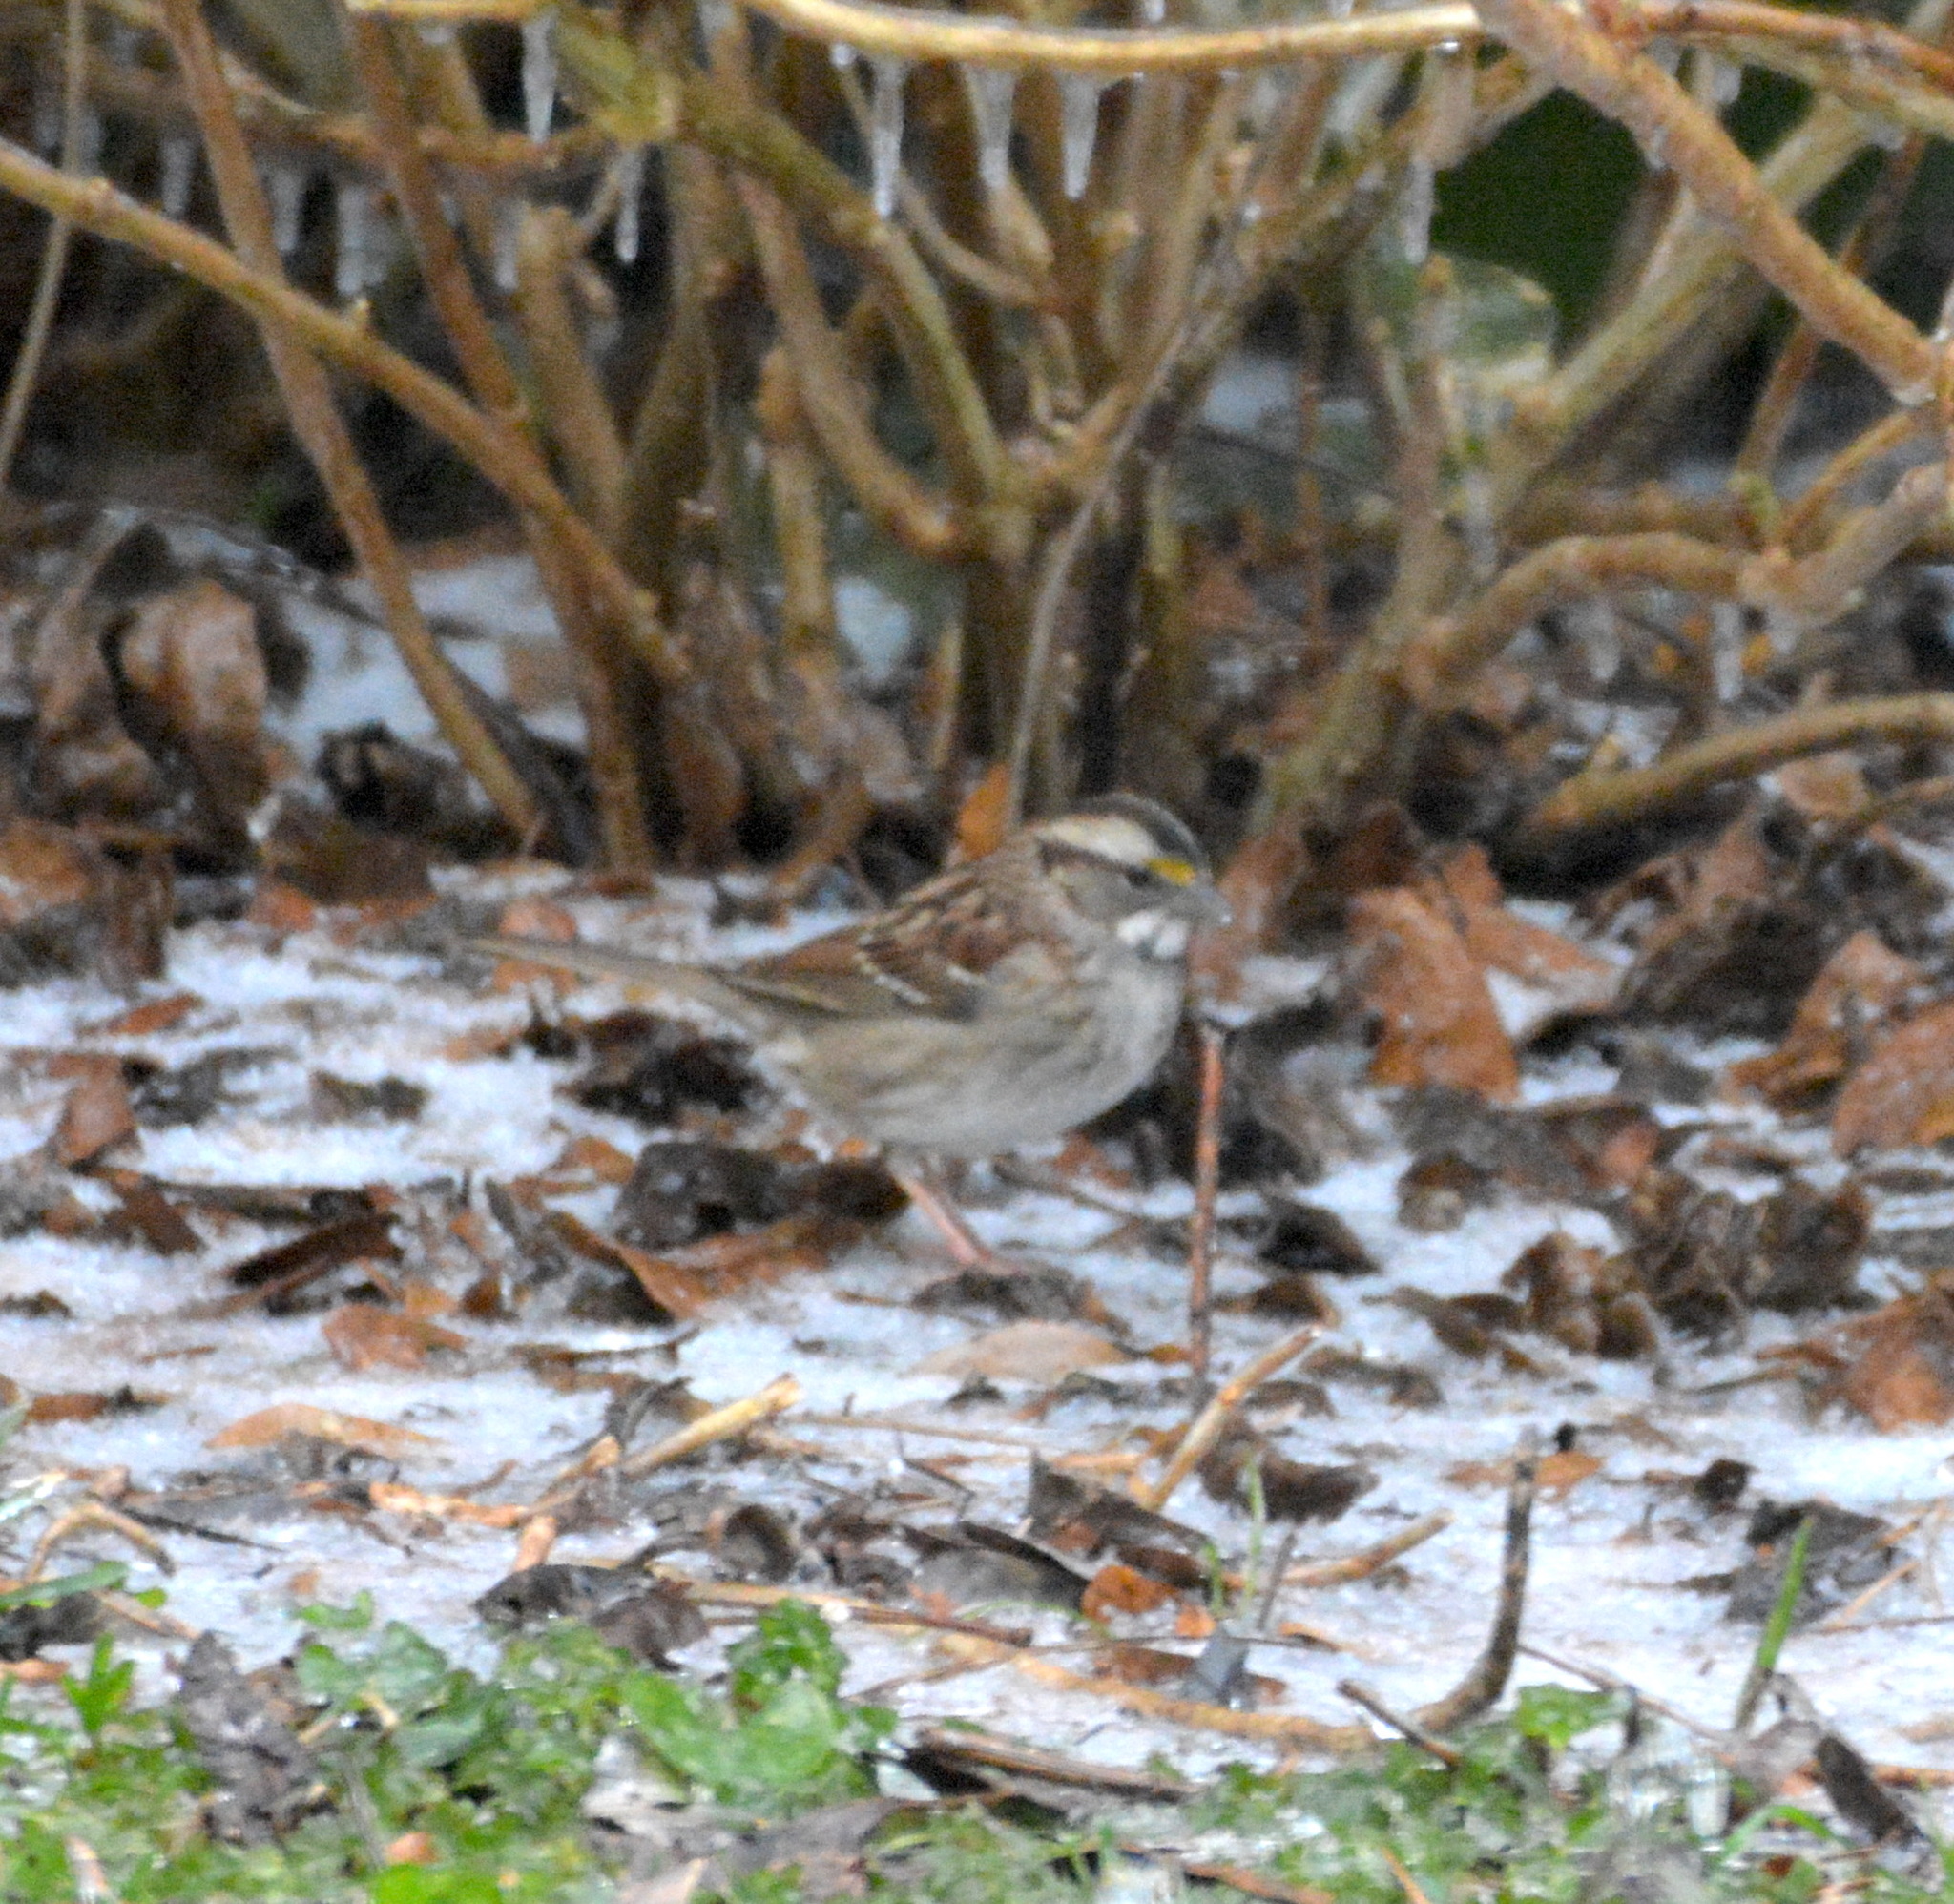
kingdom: Animalia
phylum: Chordata
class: Aves
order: Passeriformes
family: Passerellidae
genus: Zonotrichia
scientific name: Zonotrichia albicollis
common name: White-throated sparrow
